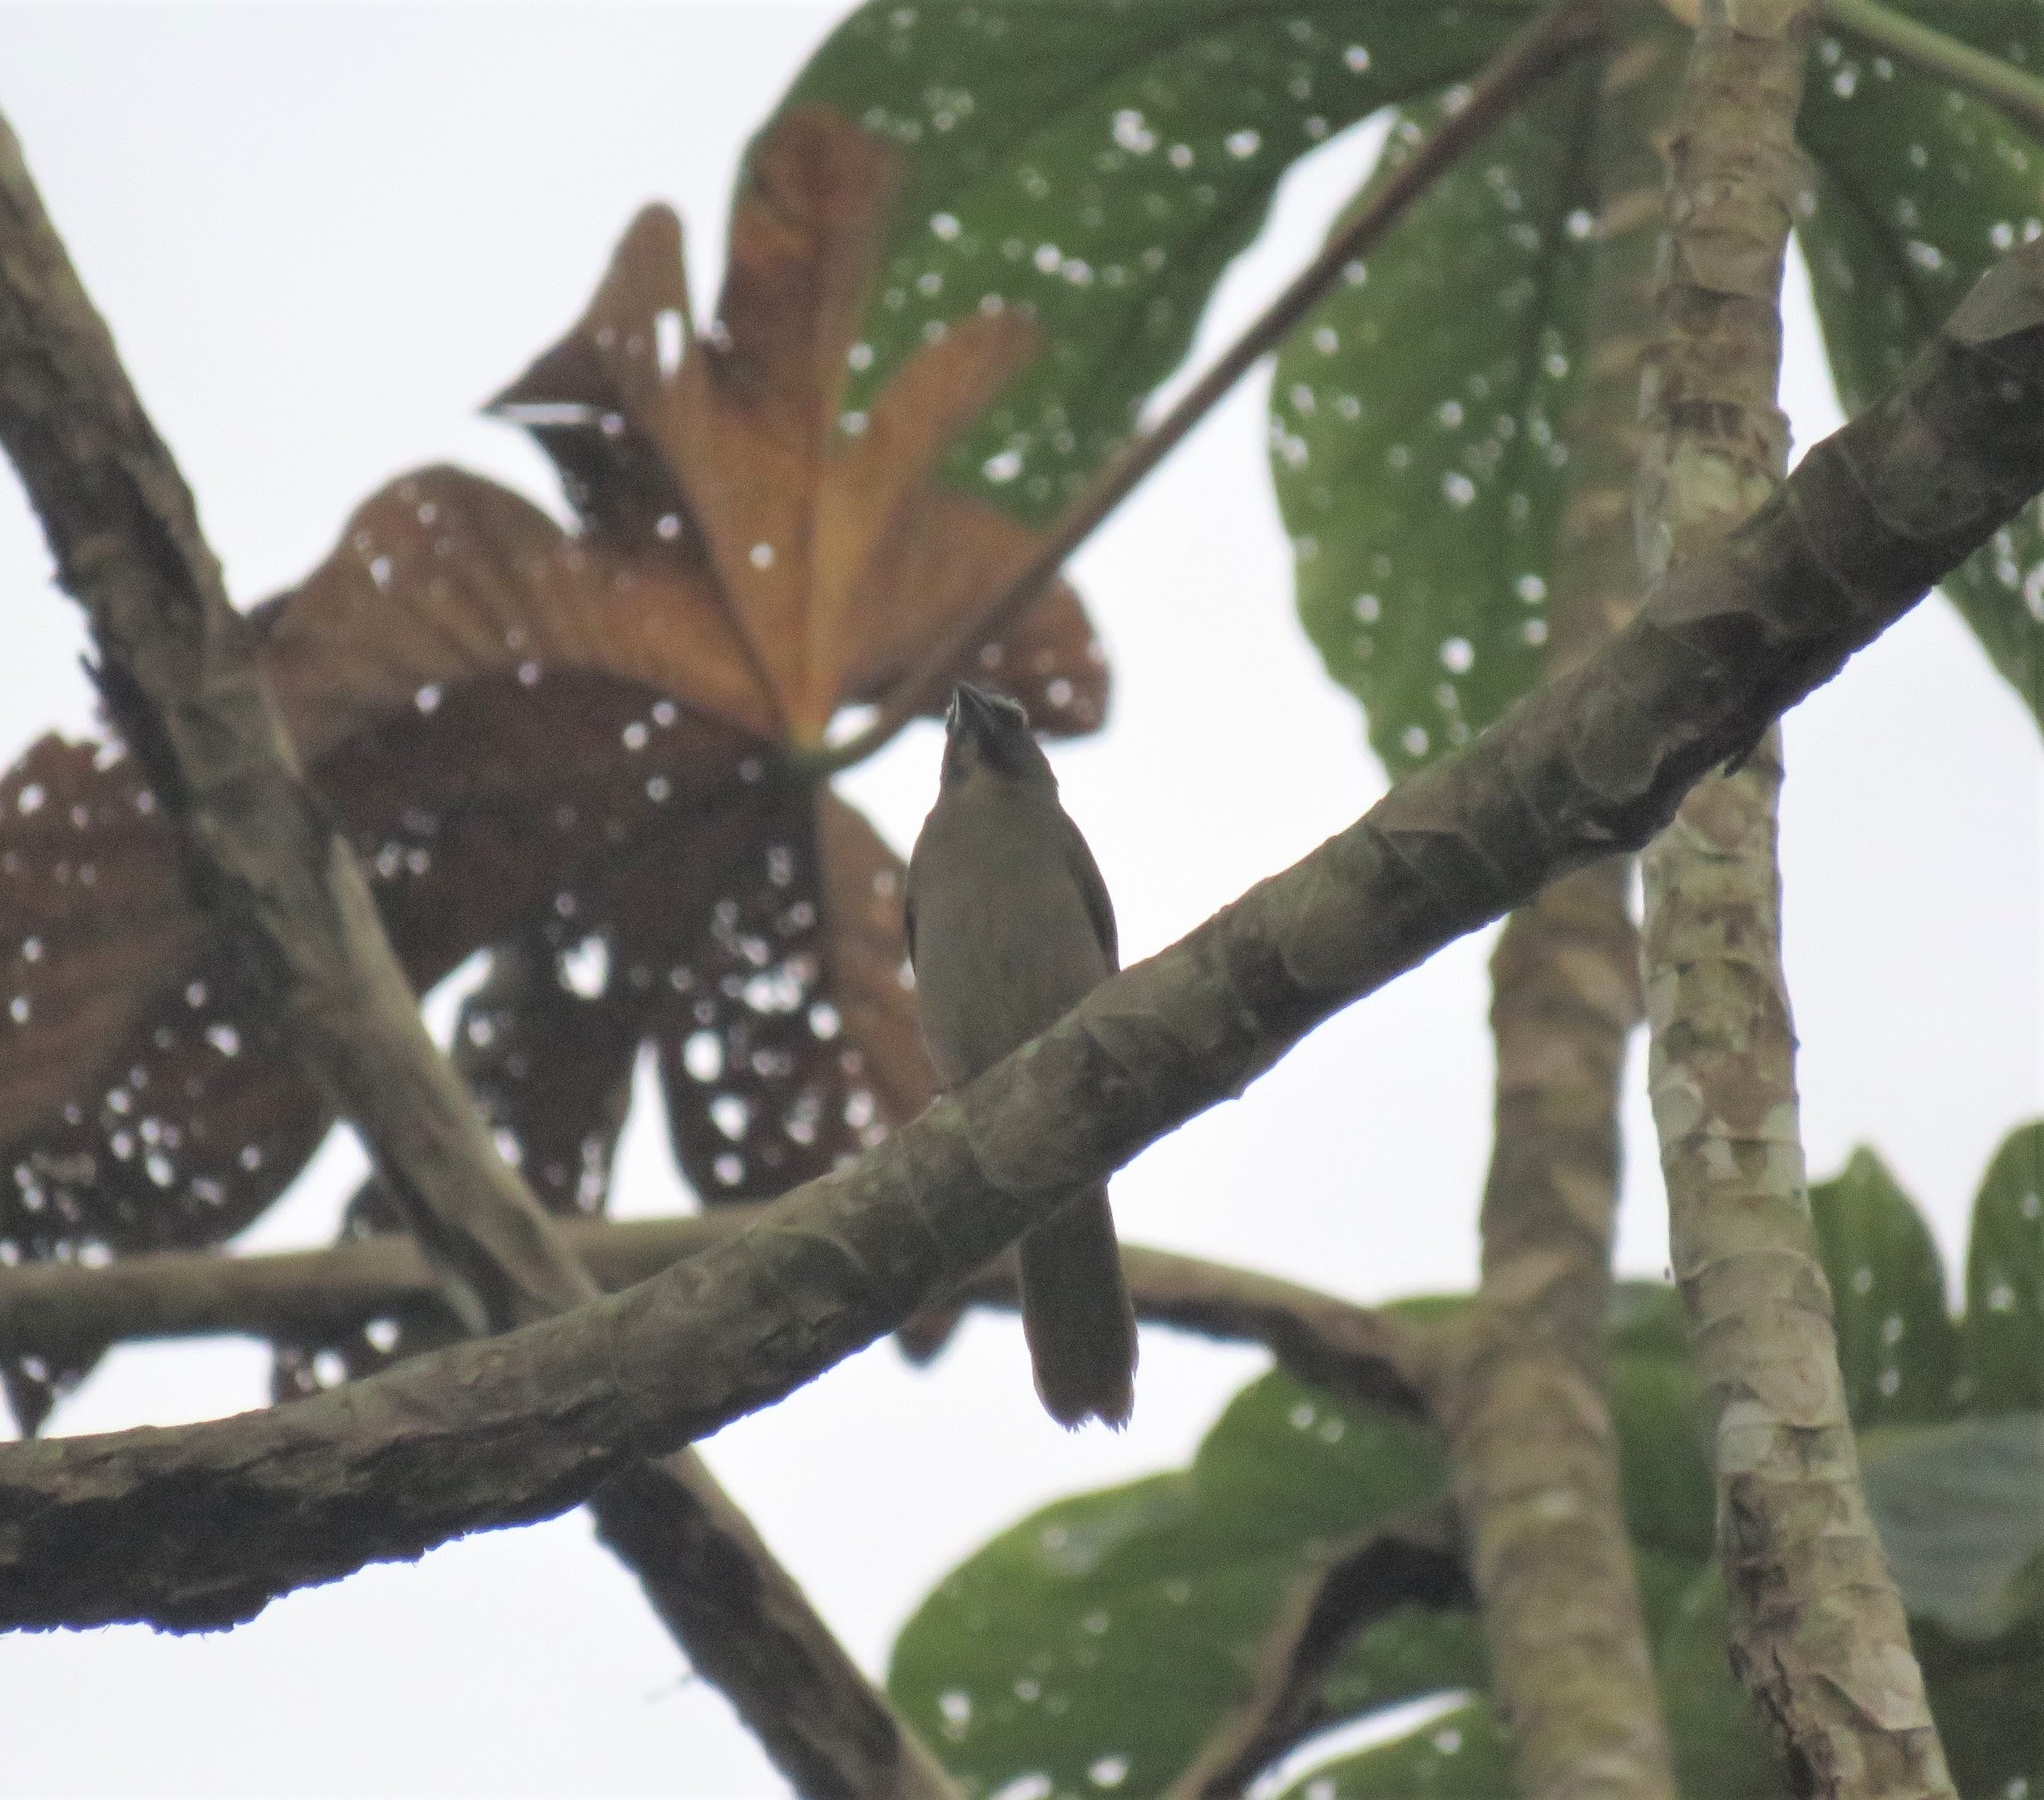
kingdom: Animalia
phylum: Chordata
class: Aves
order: Passeriformes
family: Thraupidae
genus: Saltator
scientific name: Saltator maximus
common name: Buff-throated saltator
